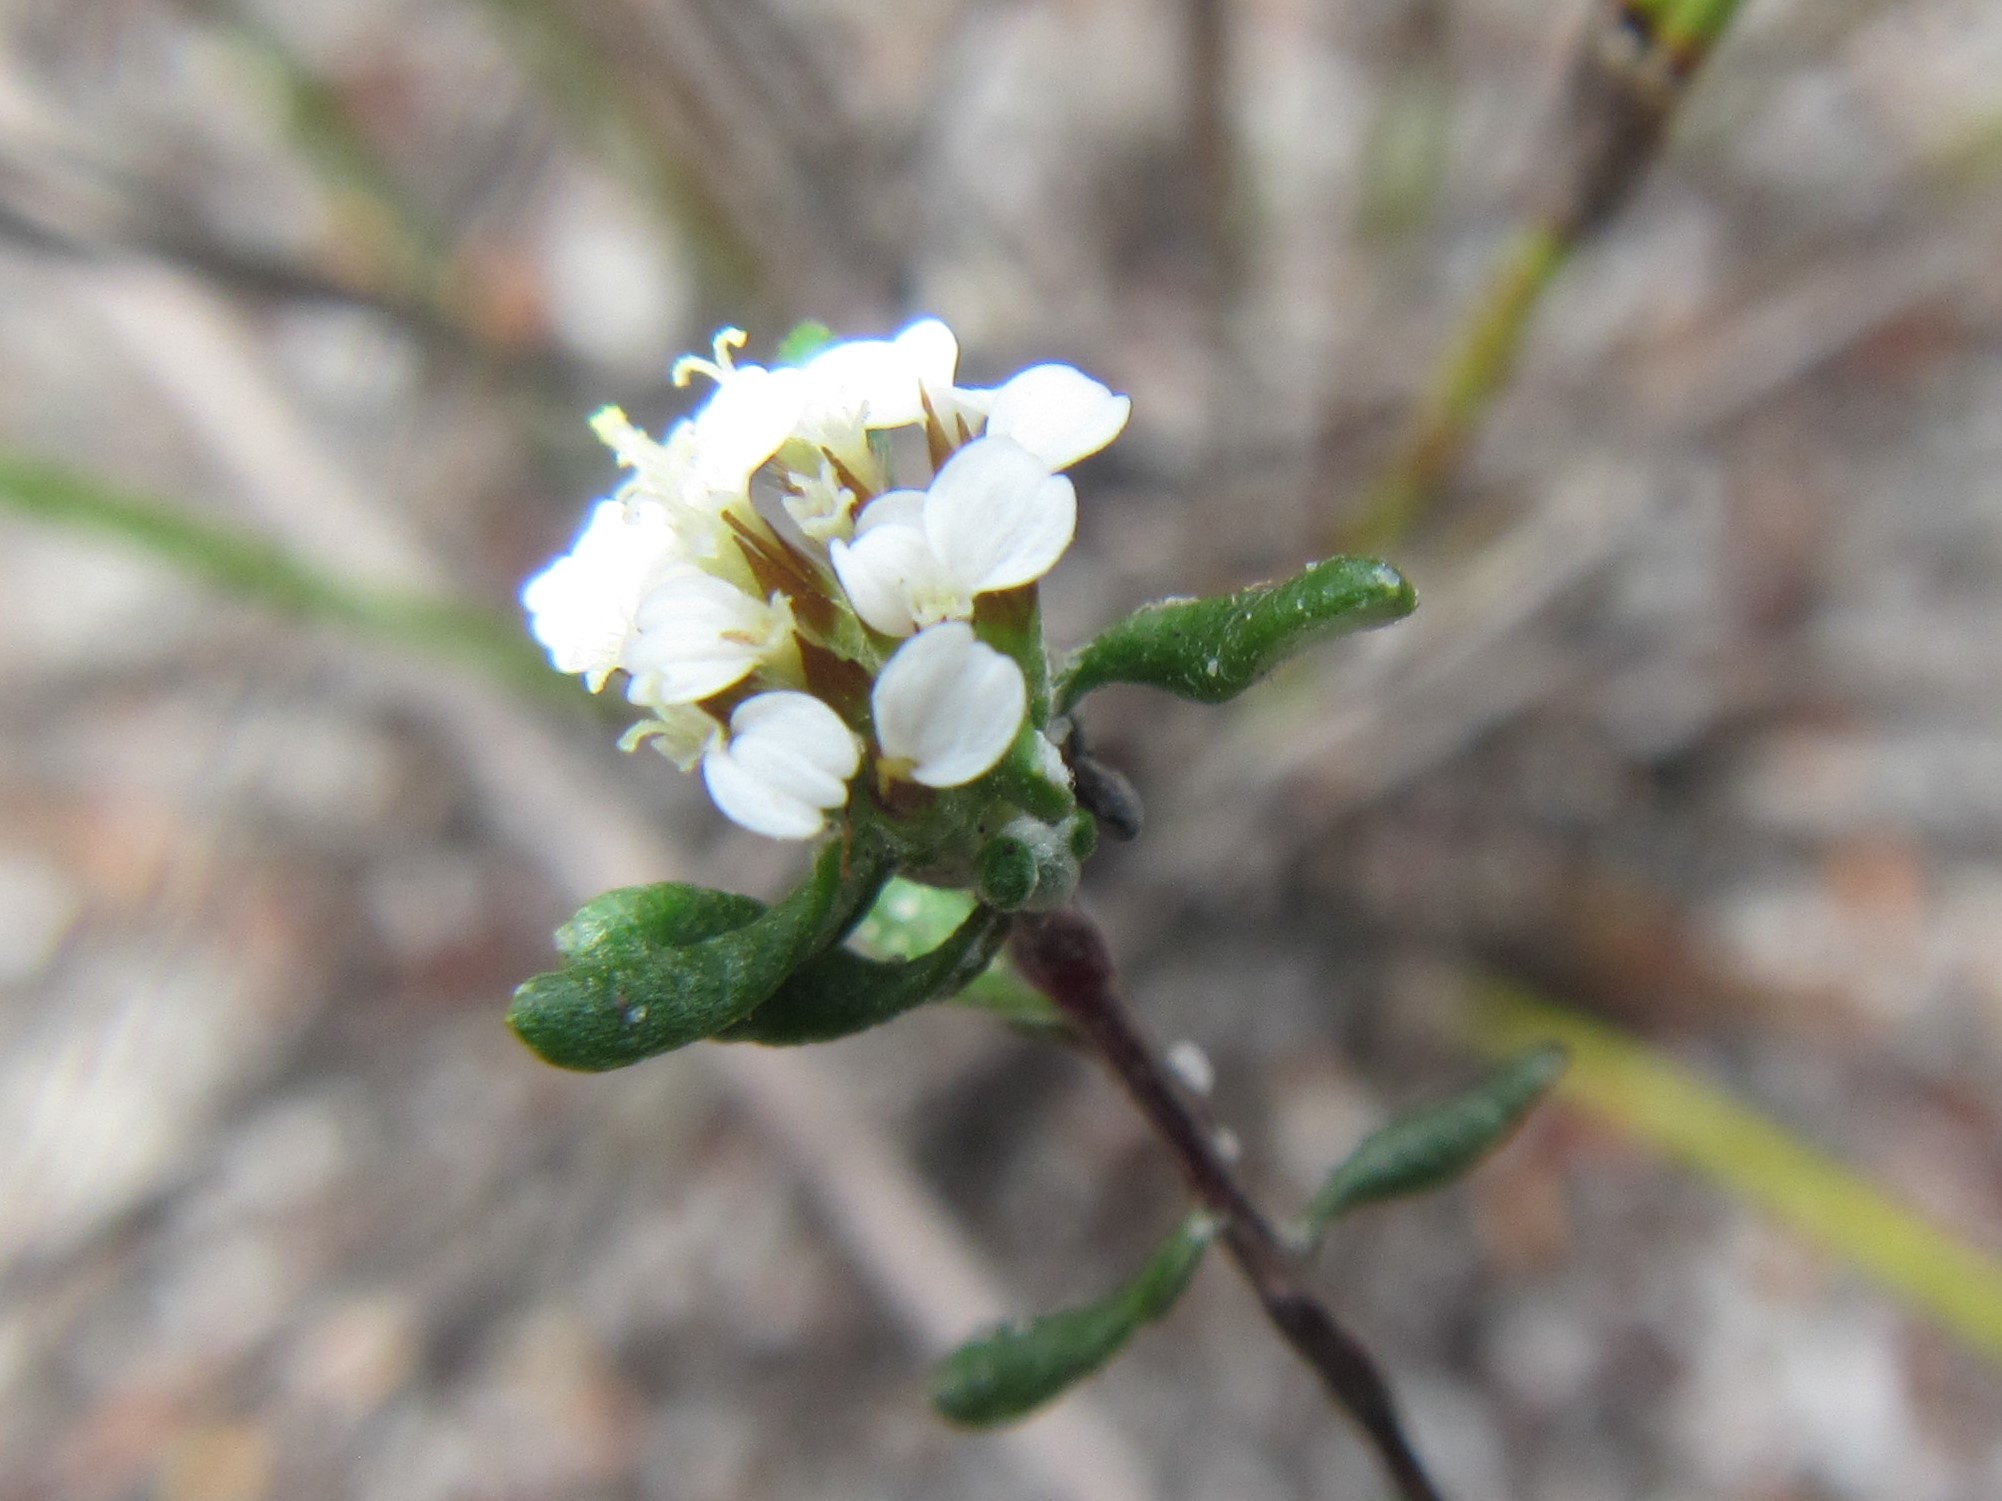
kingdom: Plantae
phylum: Tracheophyta
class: Magnoliopsida
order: Asterales
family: Asteraceae
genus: Disparago
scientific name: Disparago laxifolia
